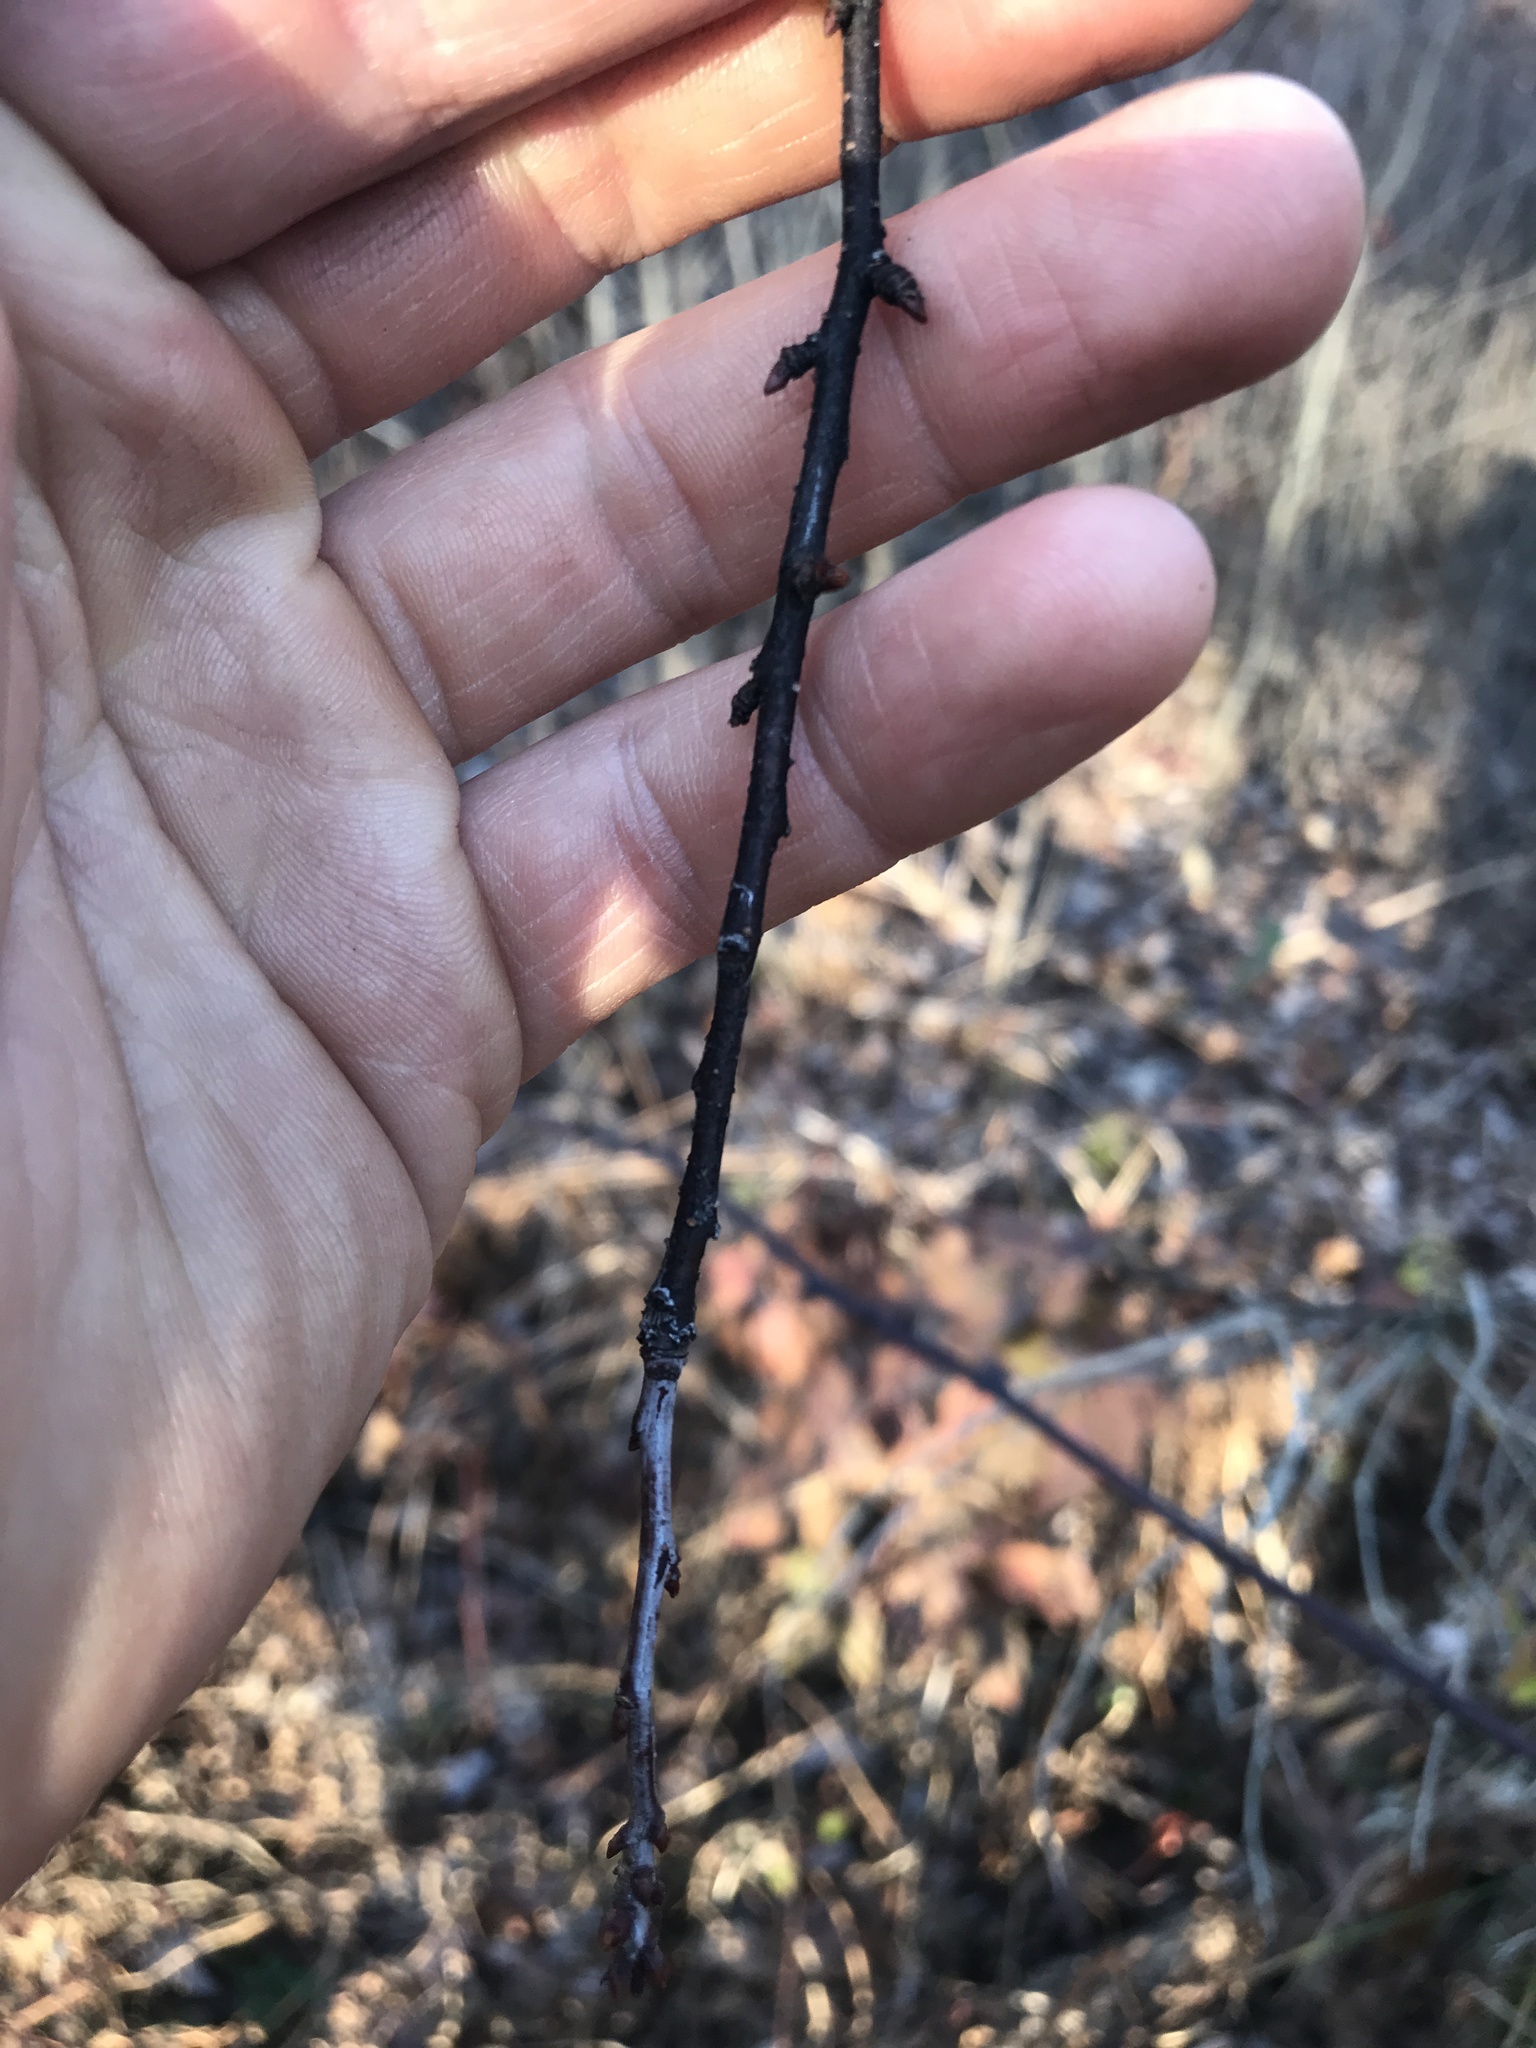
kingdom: Plantae
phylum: Tracheophyta
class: Magnoliopsida
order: Rosales
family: Rosaceae
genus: Prunus
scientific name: Prunus pensylvanica
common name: Pin cherry
